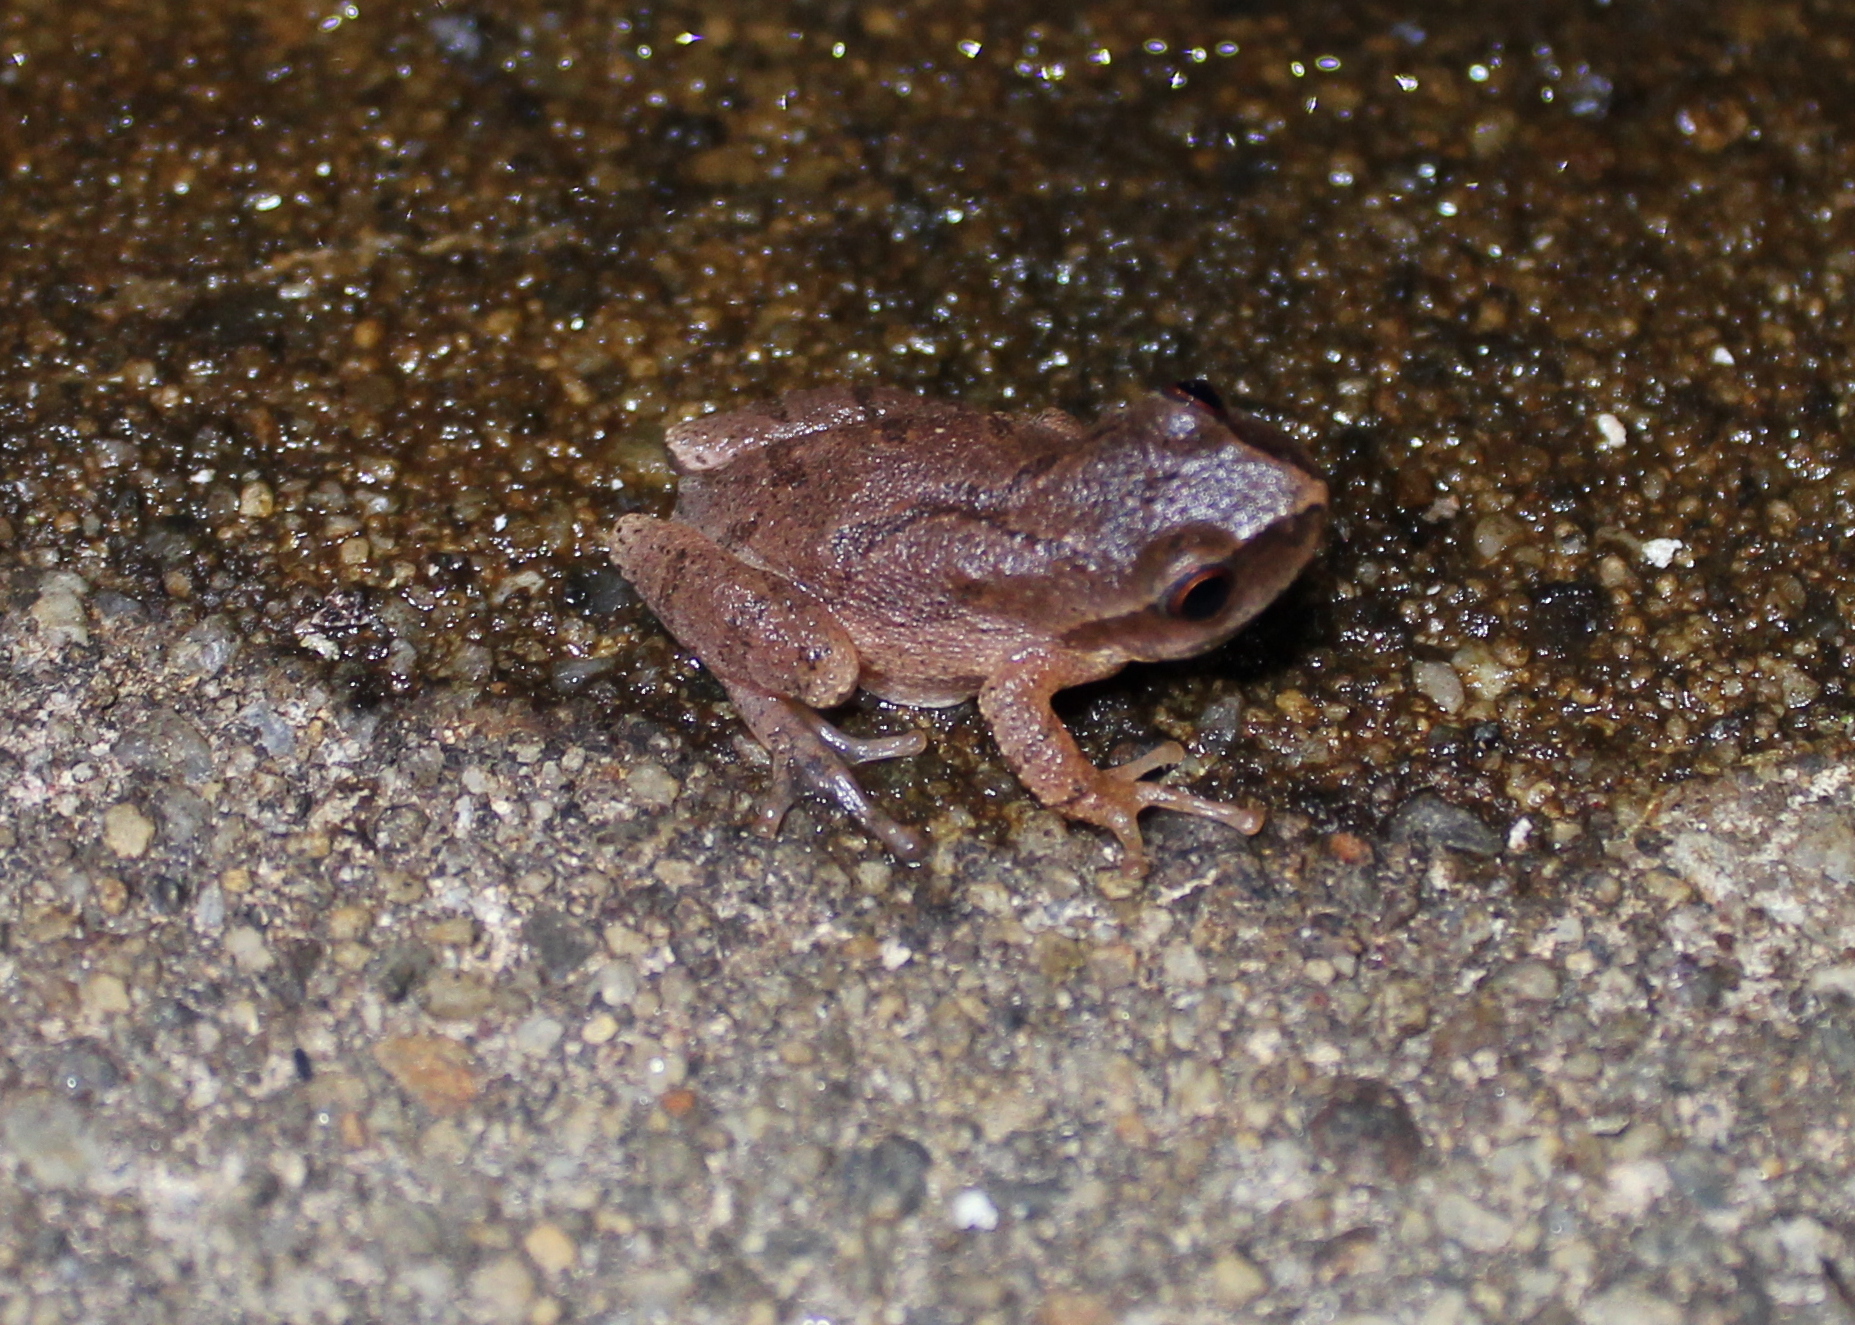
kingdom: Animalia
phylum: Chordata
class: Amphibia
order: Anura
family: Hylidae
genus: Pseudacris
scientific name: Pseudacris crucifer
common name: Spring peeper
